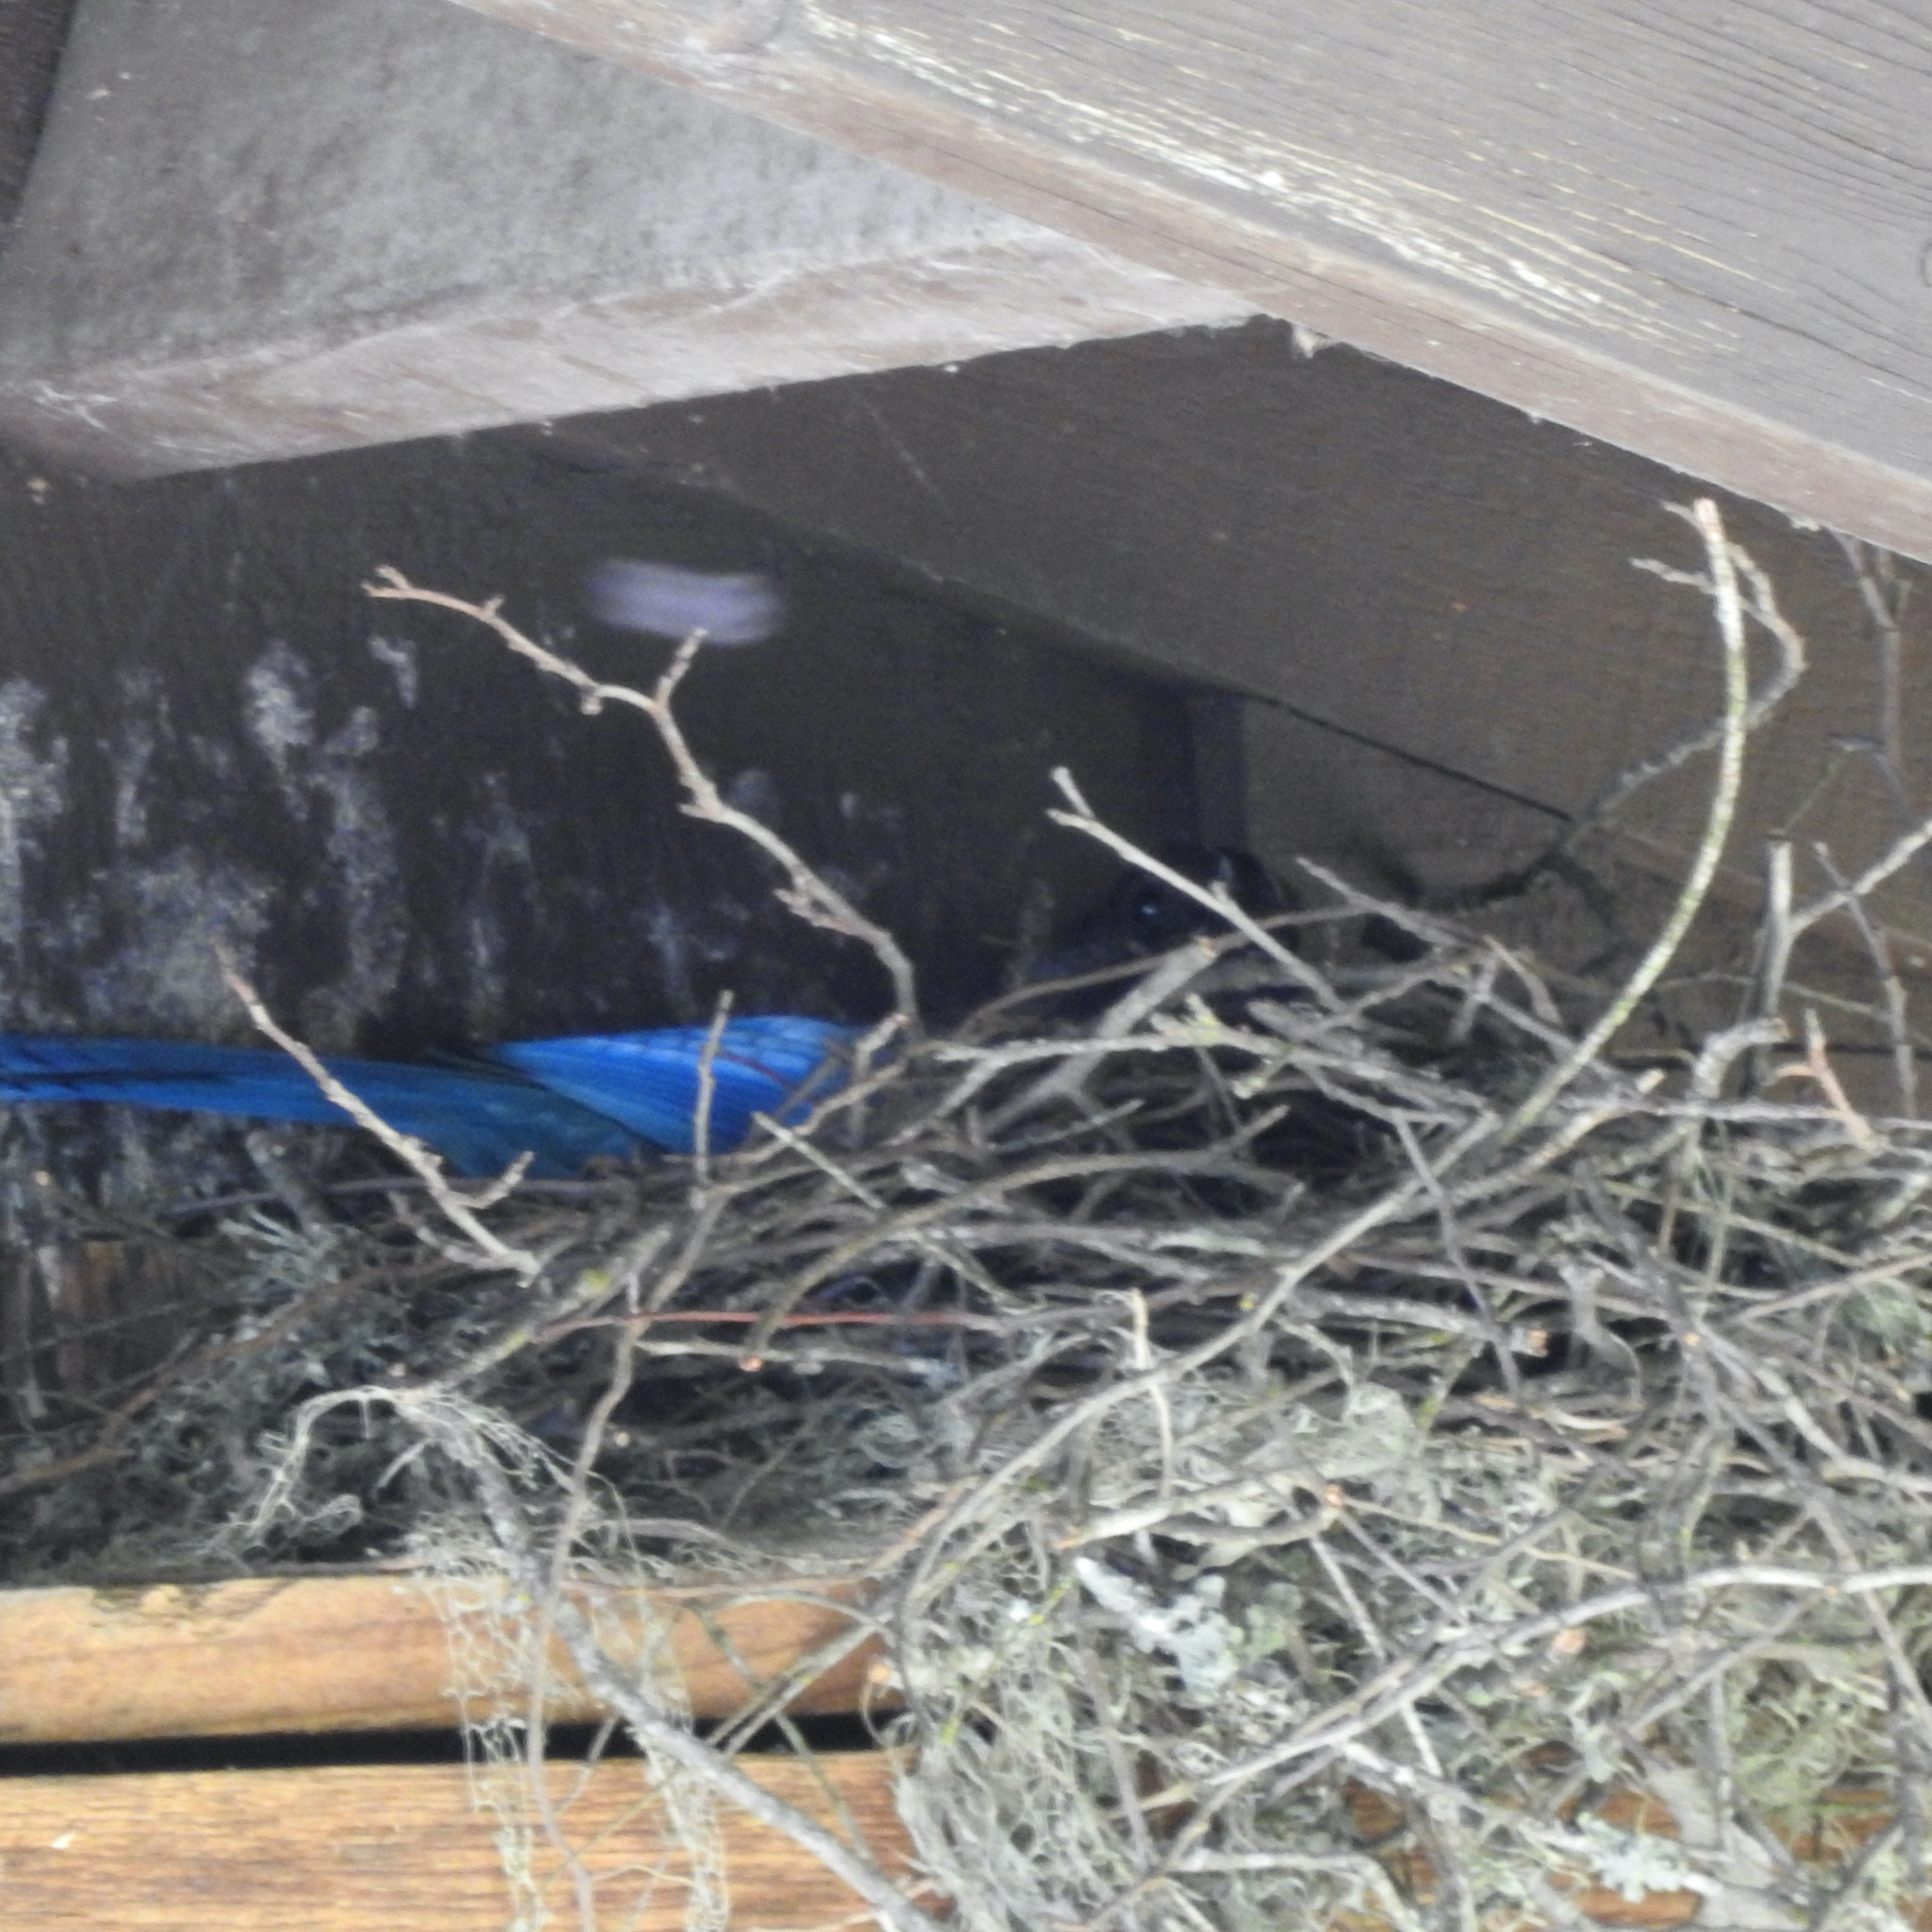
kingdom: Animalia
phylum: Chordata
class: Aves
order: Passeriformes
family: Corvidae
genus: Cyanocitta
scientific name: Cyanocitta stelleri
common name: Steller's jay
